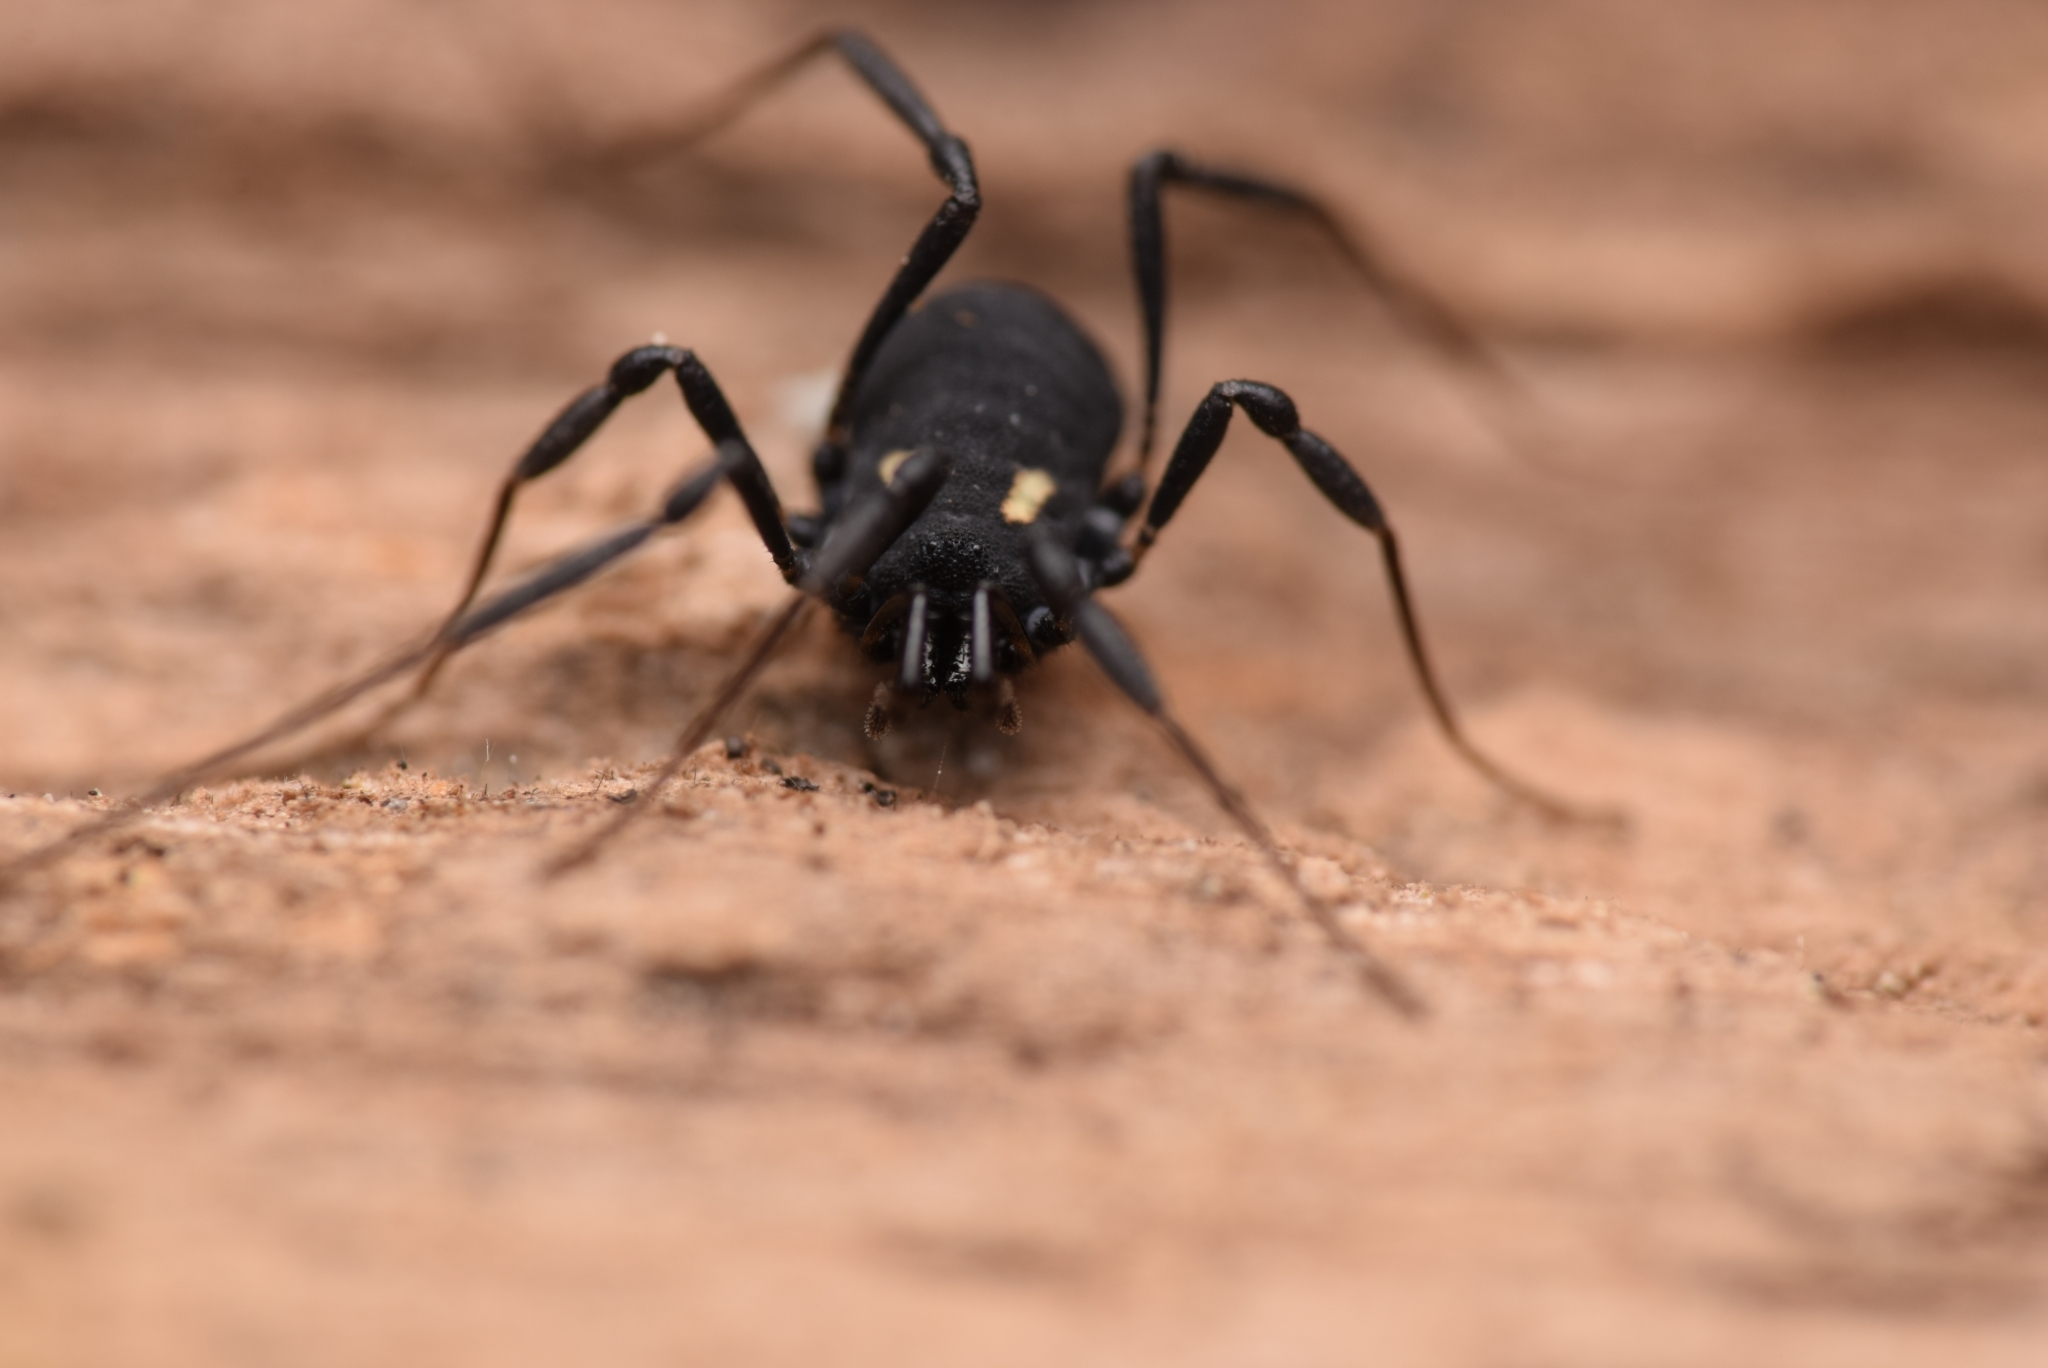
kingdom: Animalia
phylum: Arthropoda
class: Arachnida
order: Opiliones
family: Nemastomatidae
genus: Nemastoma
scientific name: Nemastoma bimaculatum
